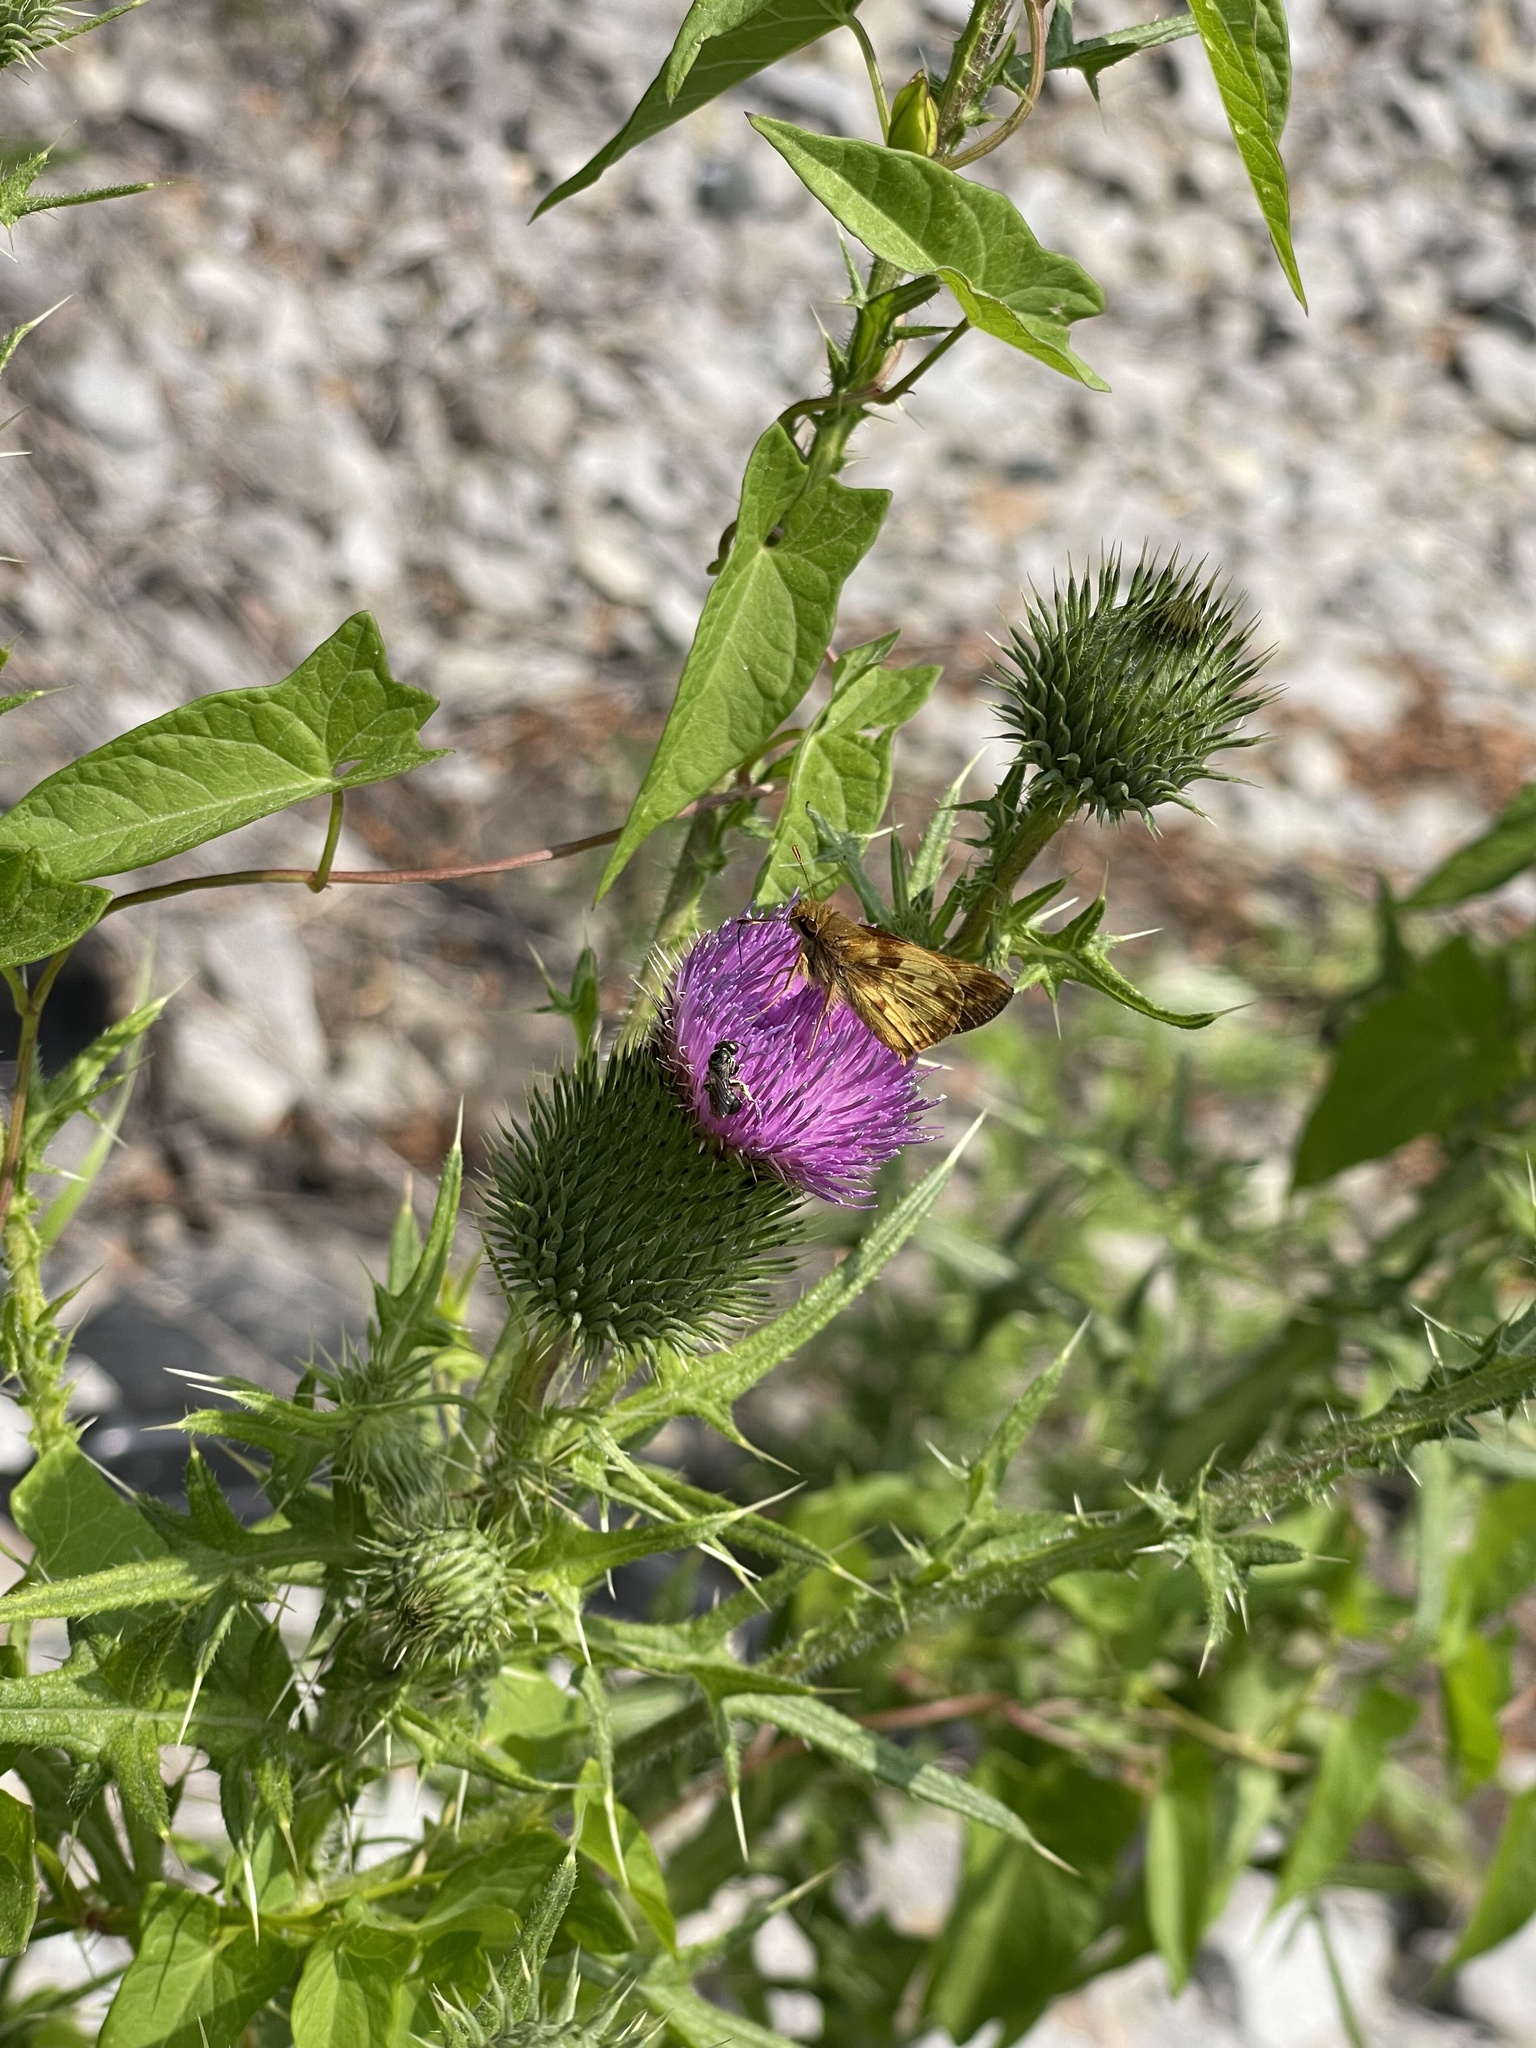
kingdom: Animalia
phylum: Arthropoda
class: Insecta
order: Lepidoptera
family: Hesperiidae
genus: Lon
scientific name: Lon zabulon
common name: Zabulon skipper
